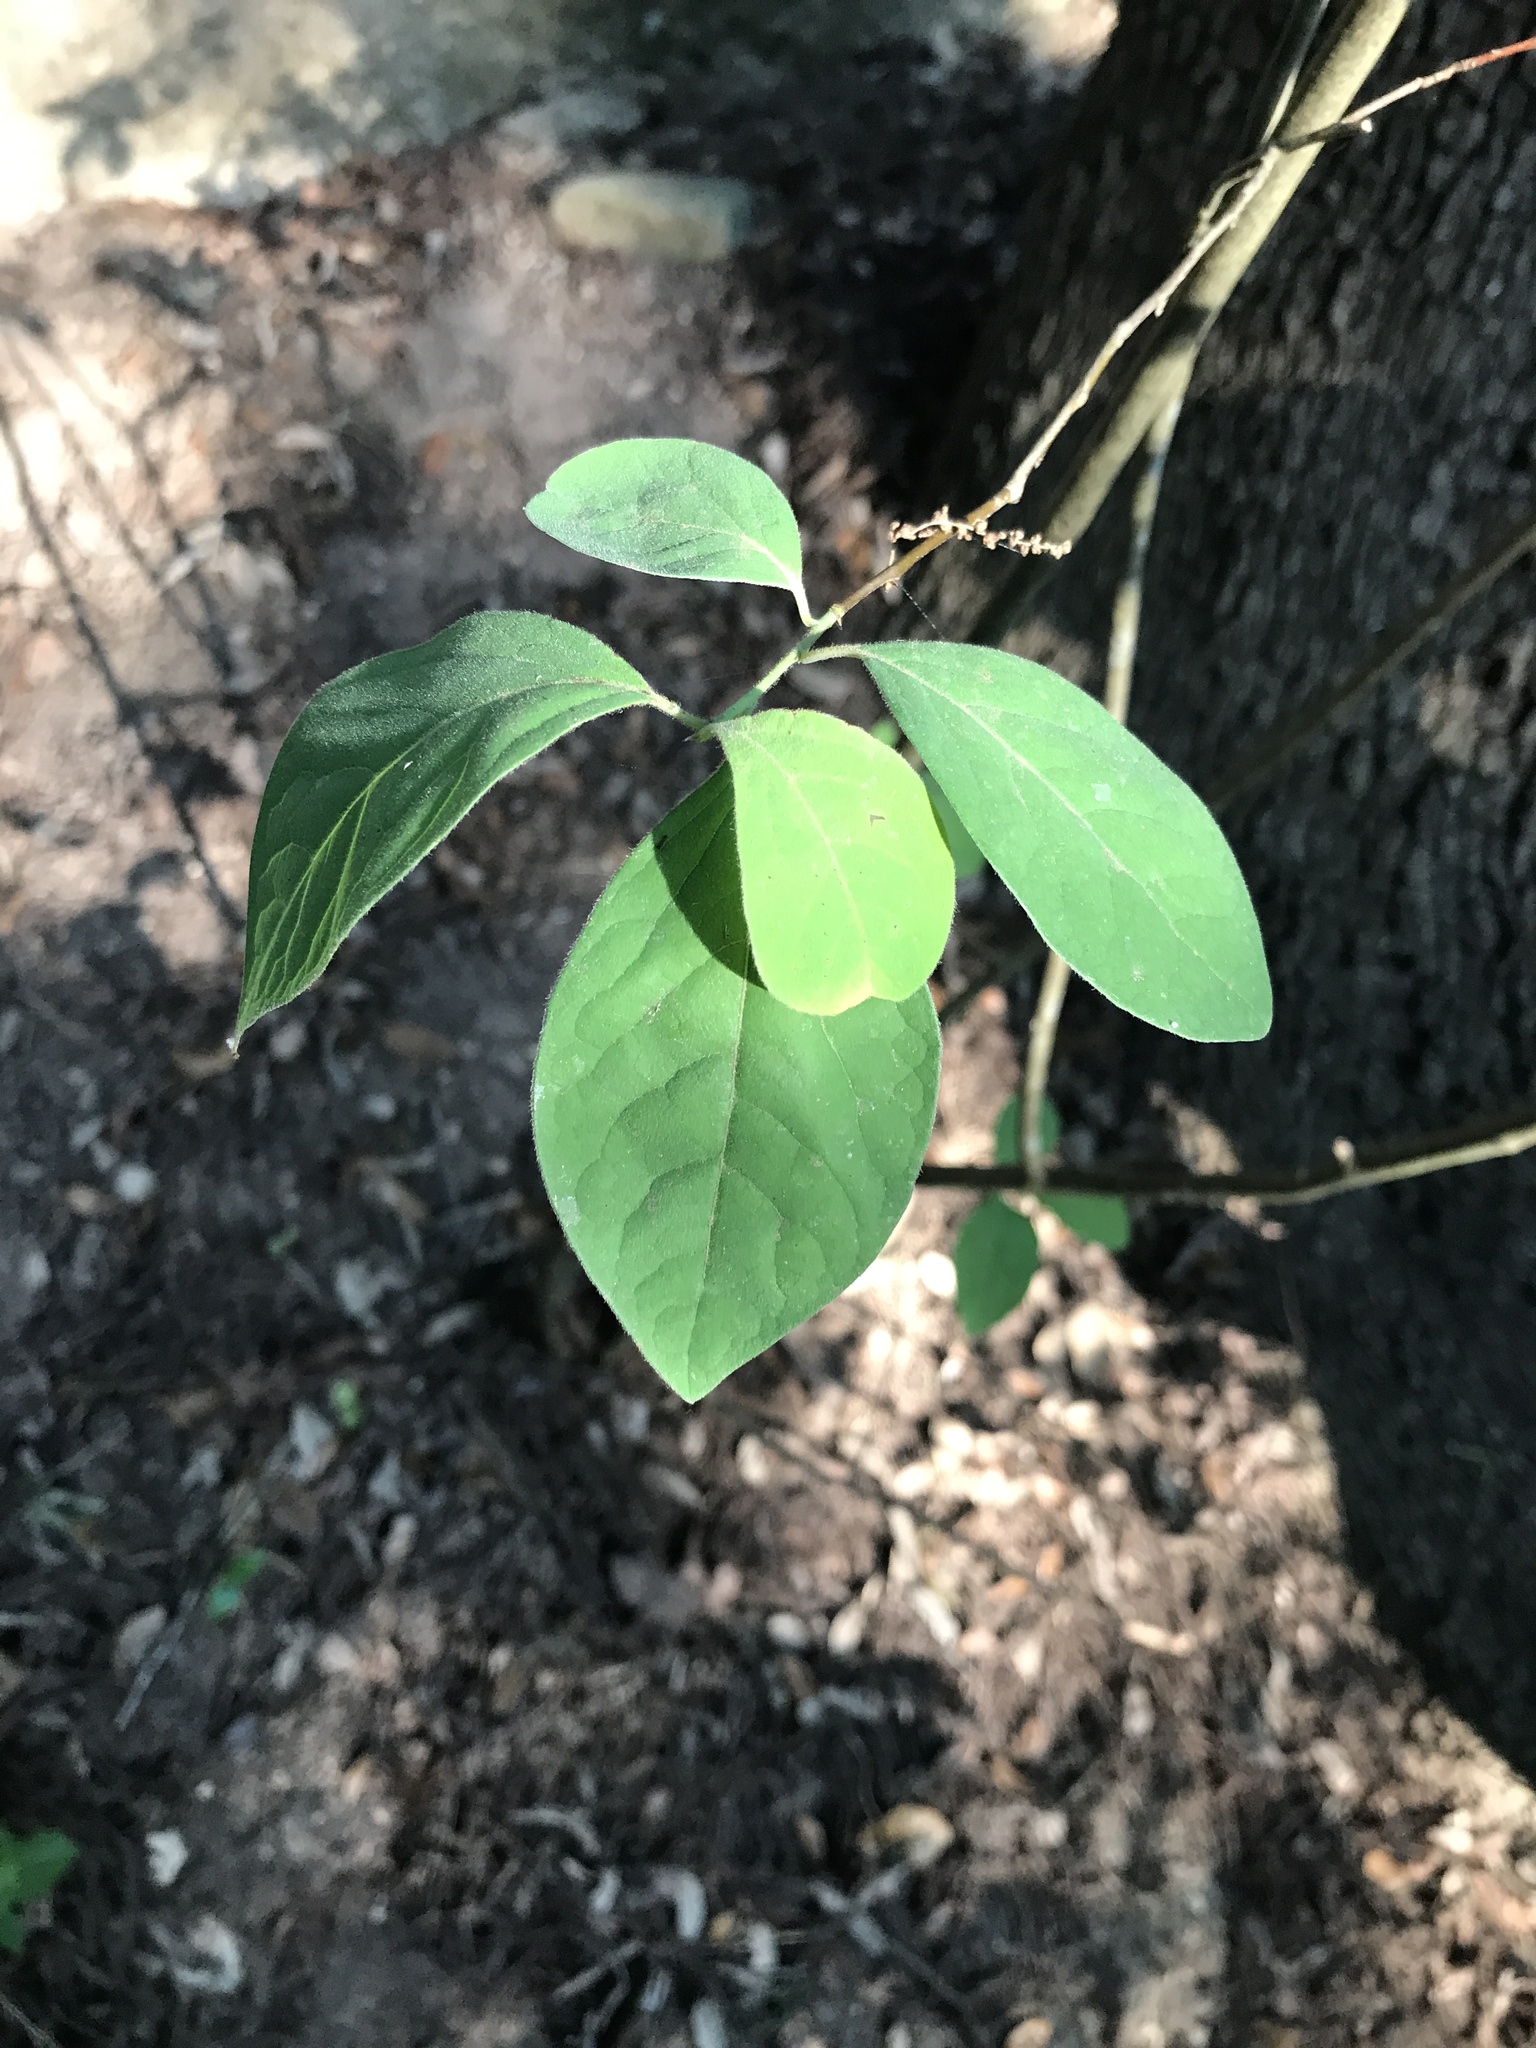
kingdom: Plantae
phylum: Tracheophyta
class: Magnoliopsida
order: Laurales
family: Lauraceae
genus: Lindera
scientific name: Lindera benzoin
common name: Spicebush
